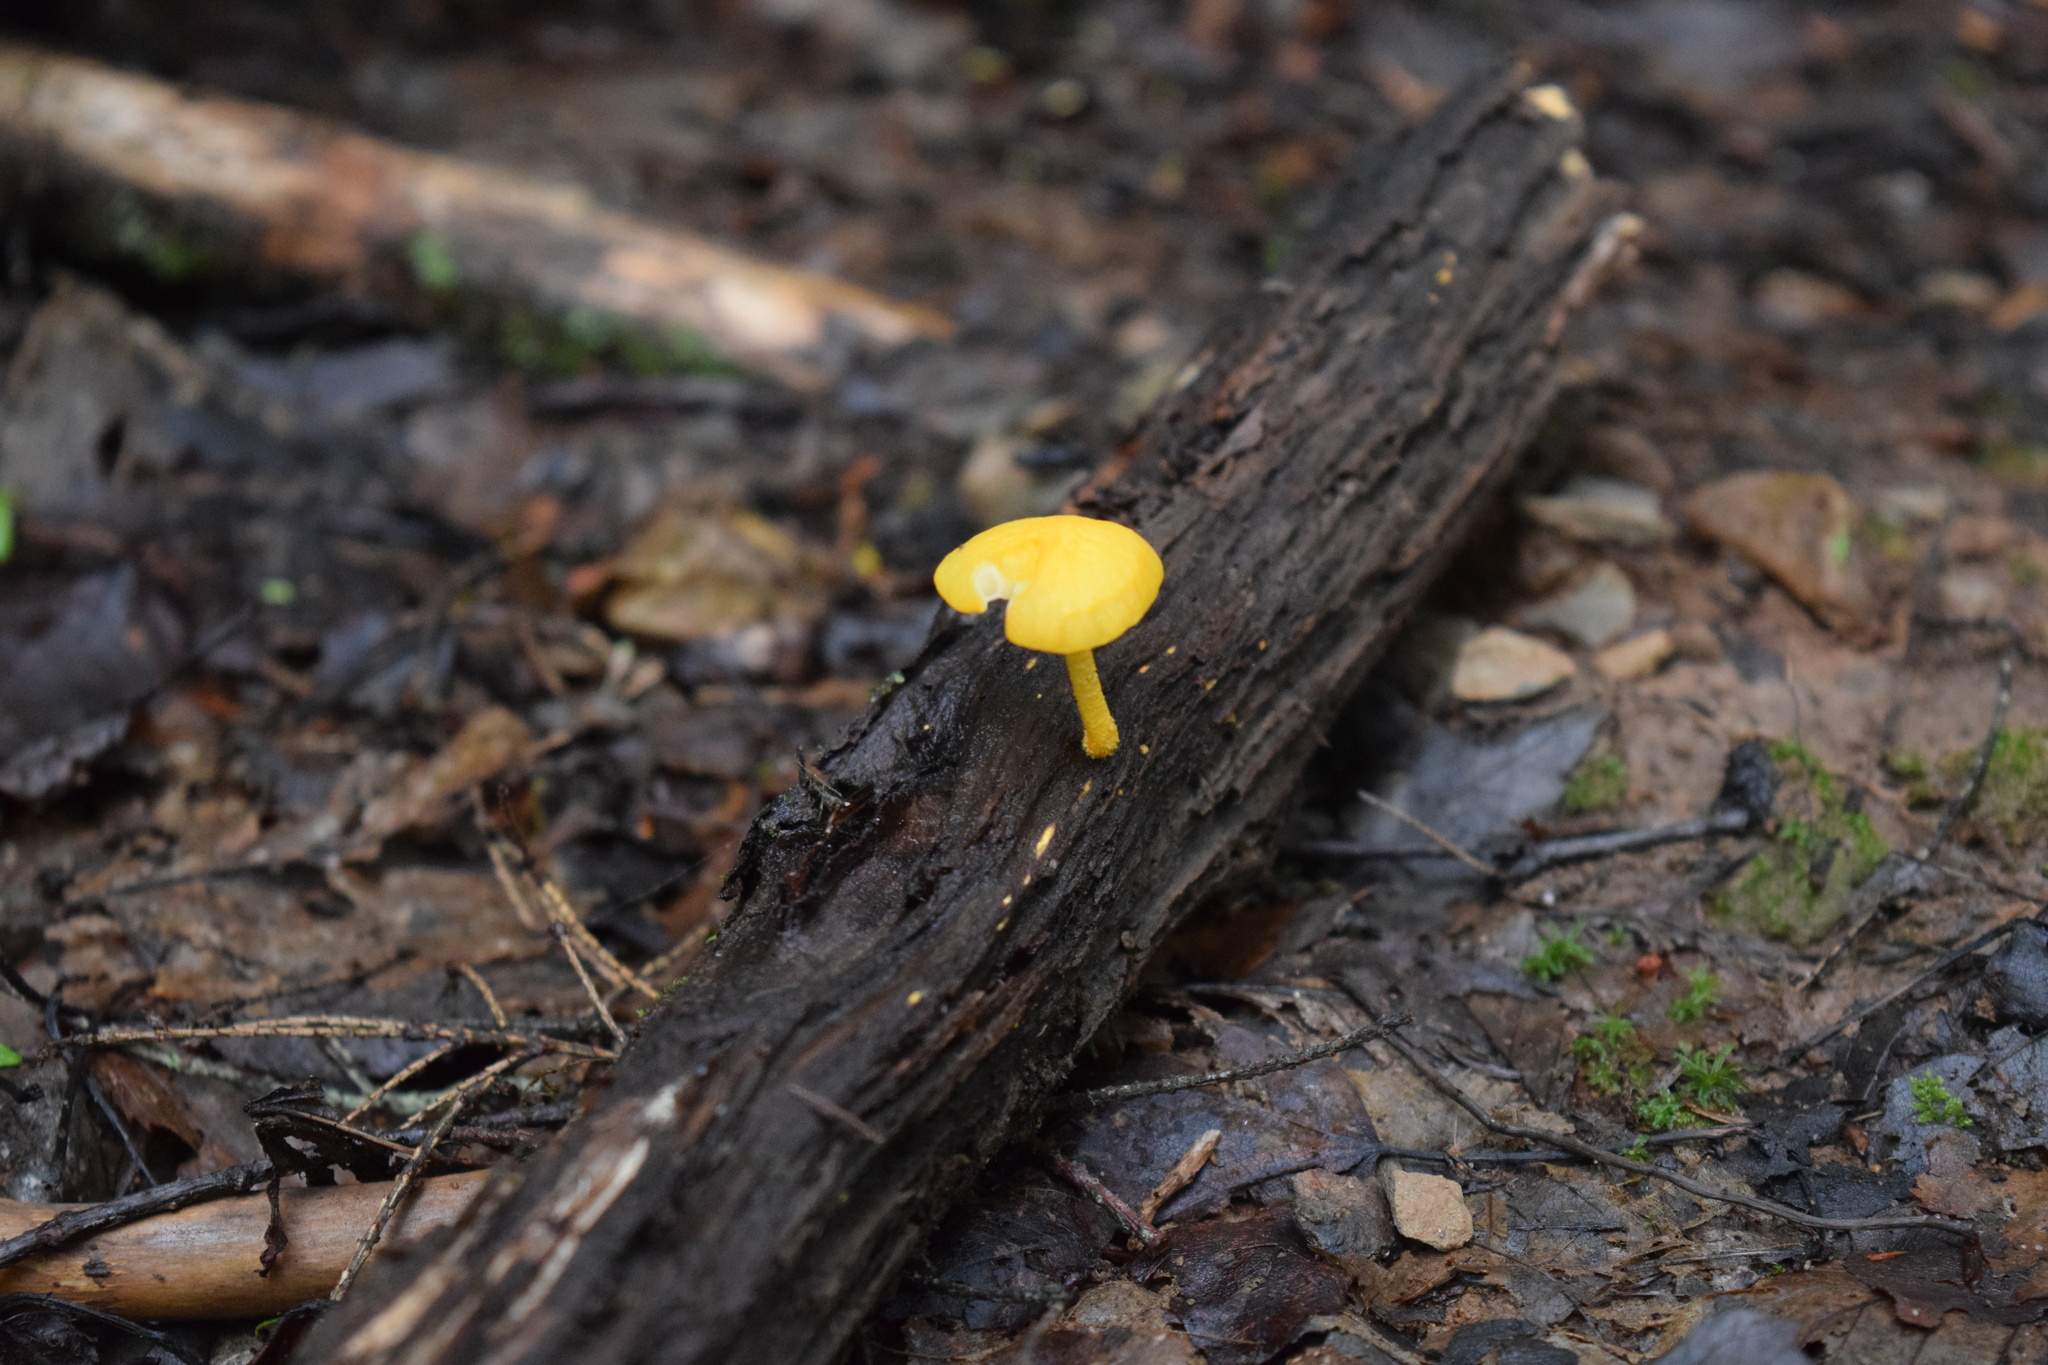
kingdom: Fungi
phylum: Basidiomycota
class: Agaricomycetes
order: Agaricales
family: Physalacriaceae
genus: Cyptotrama
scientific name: Cyptotrama chrysopepla
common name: Golden coincap
